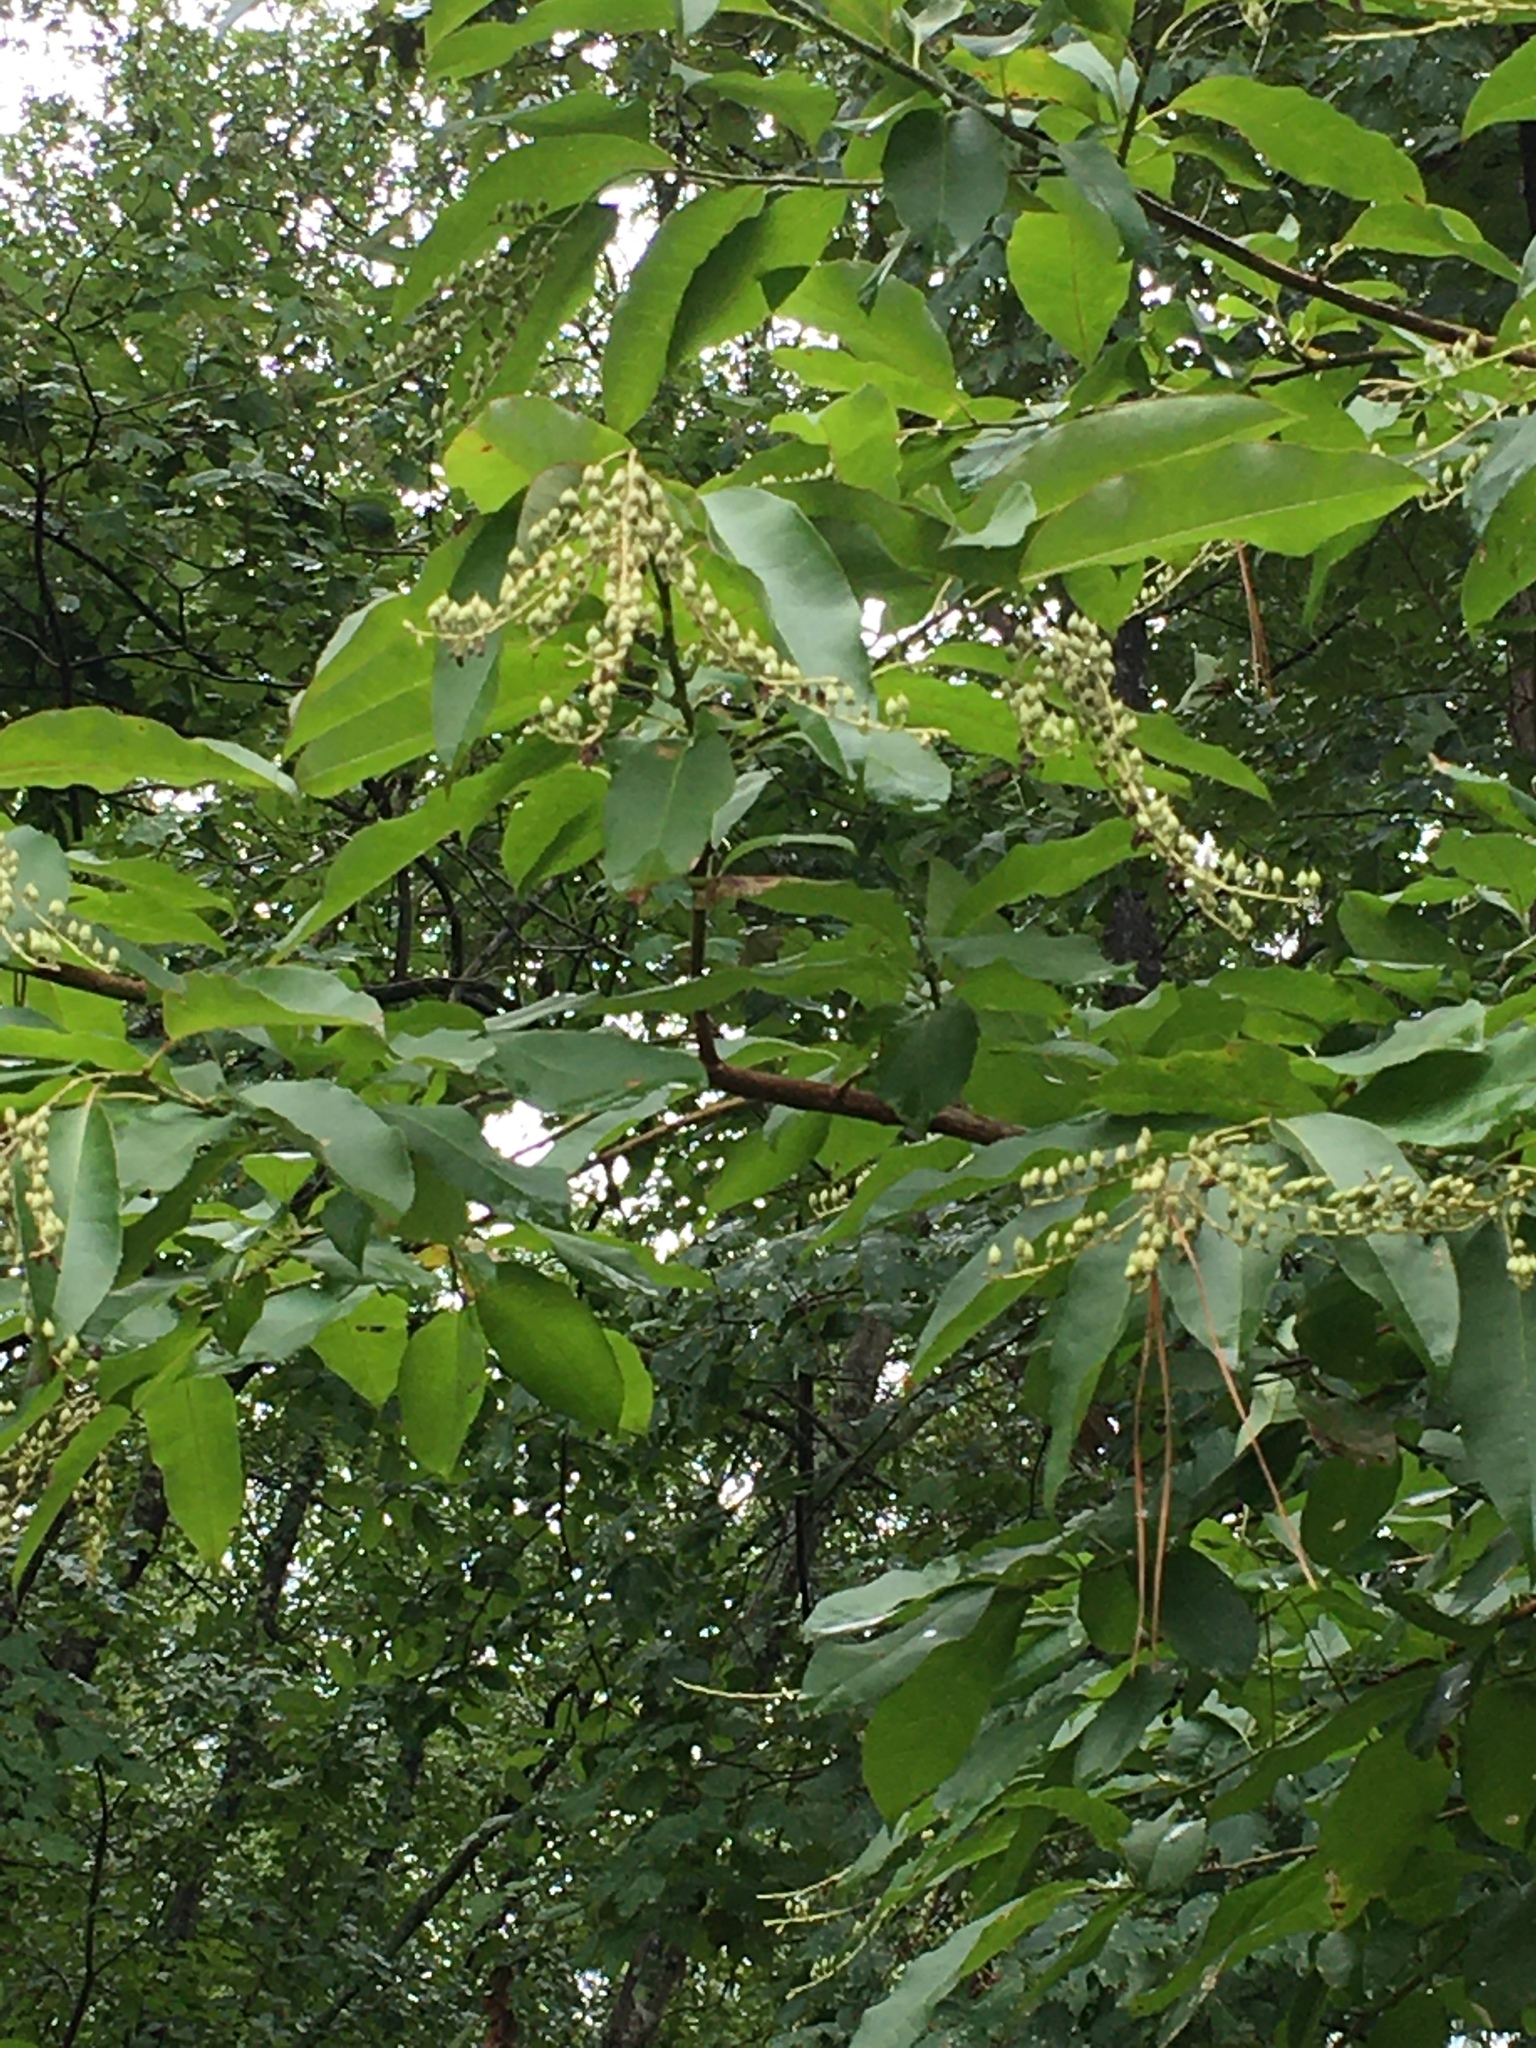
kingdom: Plantae
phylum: Tracheophyta
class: Magnoliopsida
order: Ericales
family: Ericaceae
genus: Oxydendrum
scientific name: Oxydendrum arboreum
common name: Sourwood
